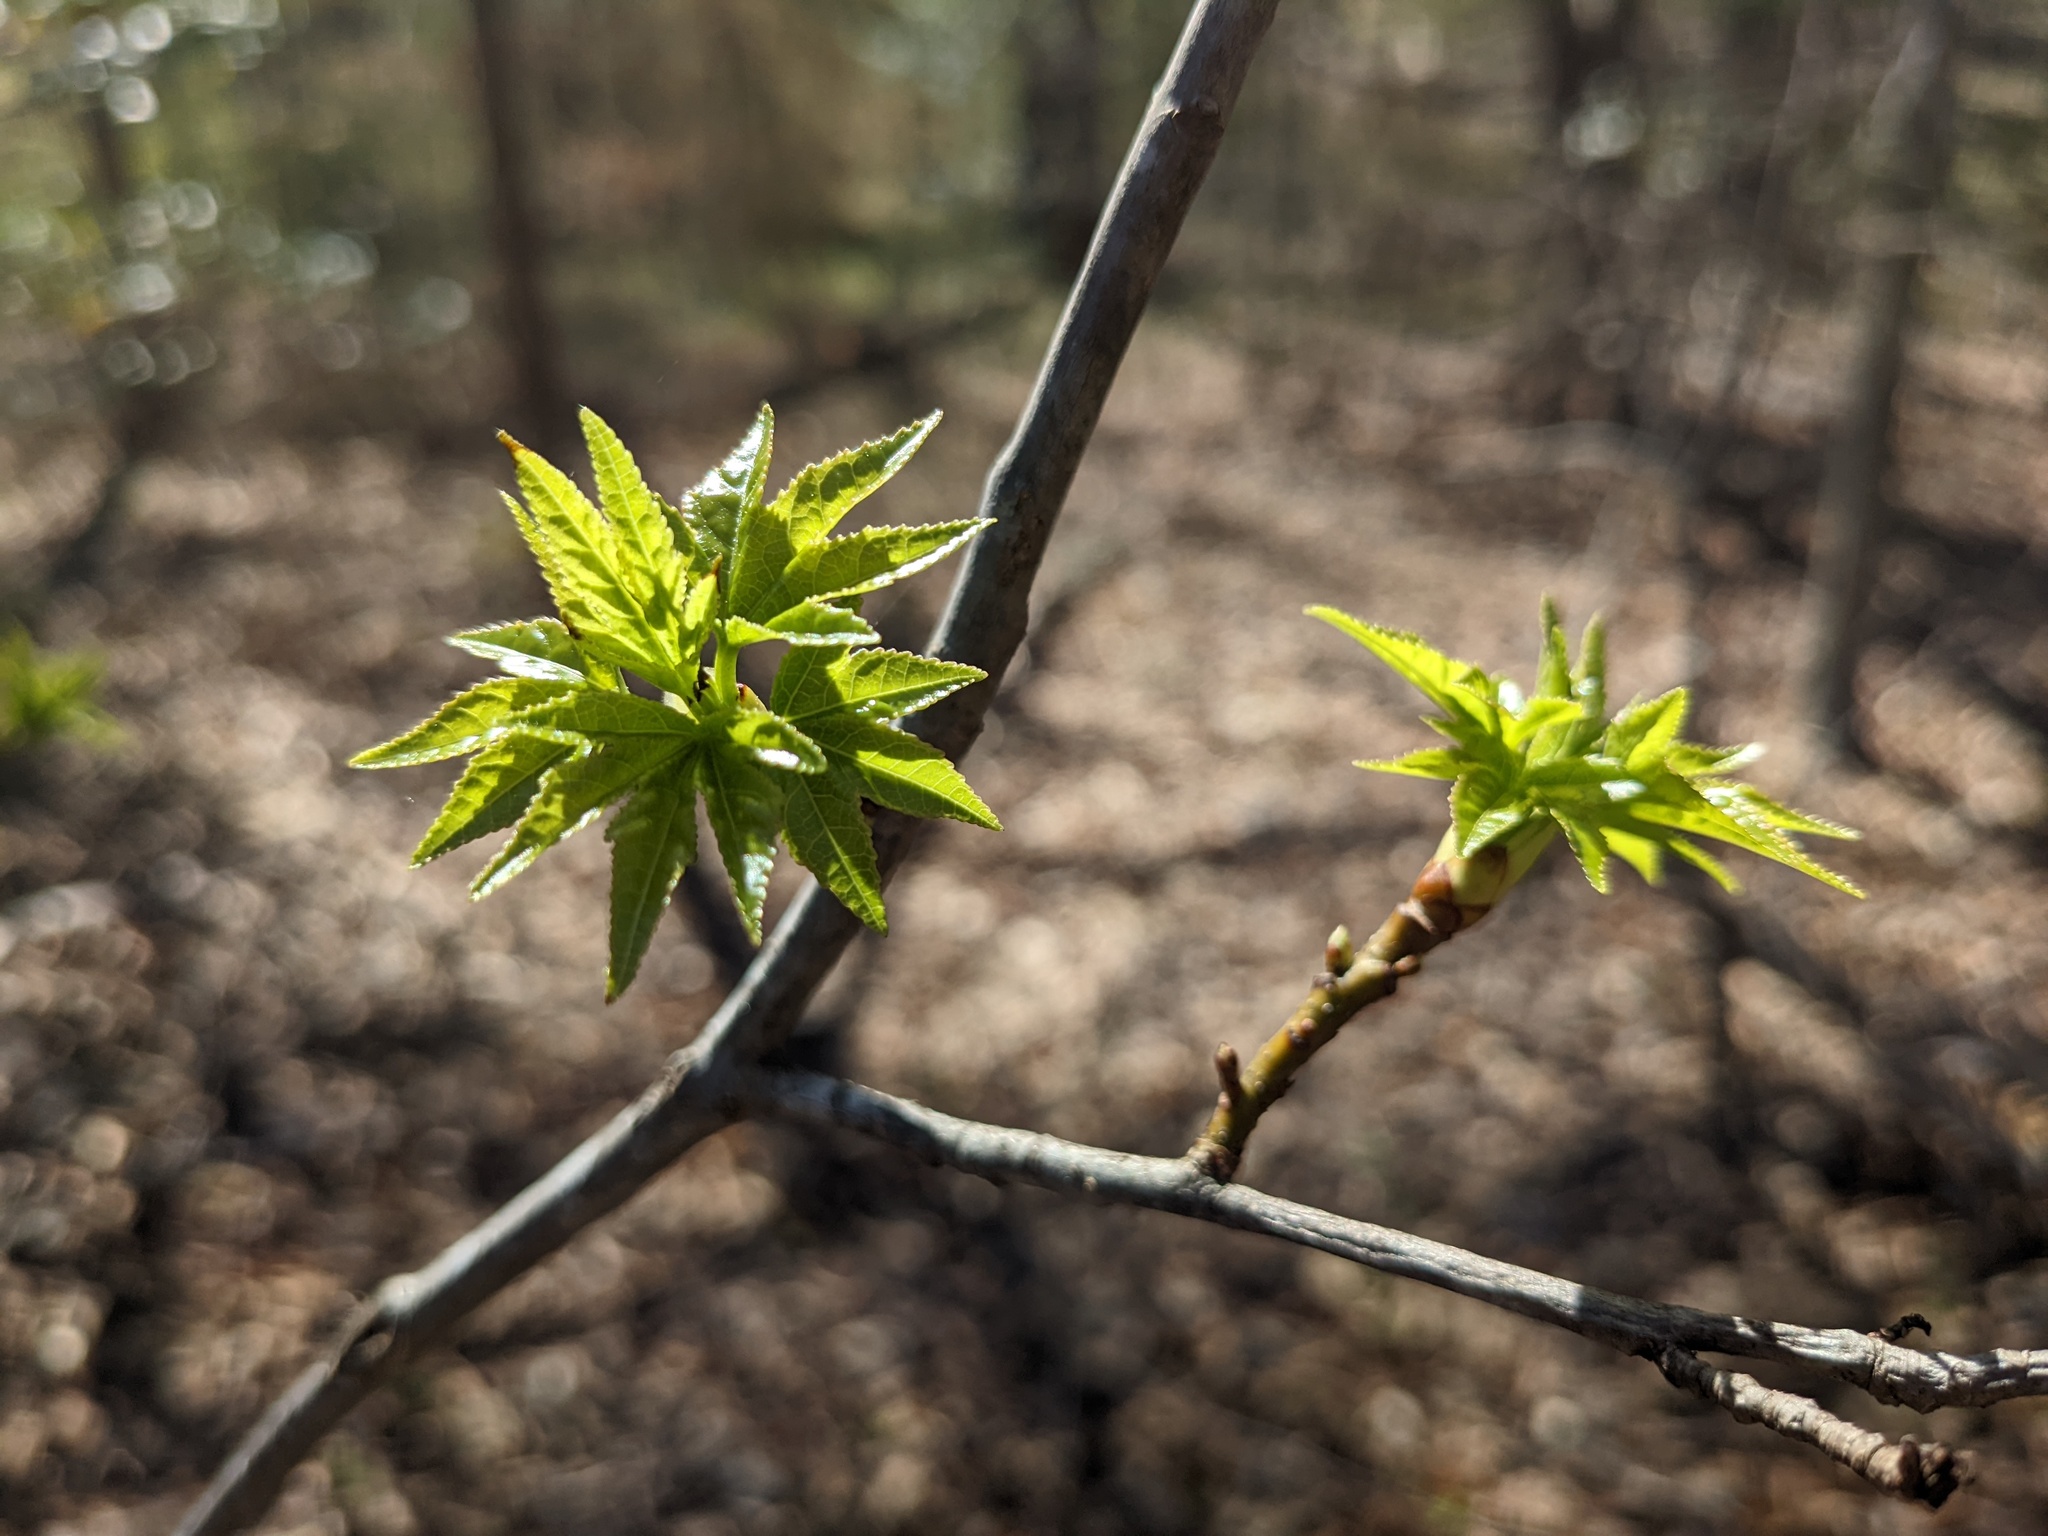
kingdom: Plantae
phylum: Tracheophyta
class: Magnoliopsida
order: Saxifragales
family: Altingiaceae
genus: Liquidambar
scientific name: Liquidambar styraciflua
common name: Sweet gum
